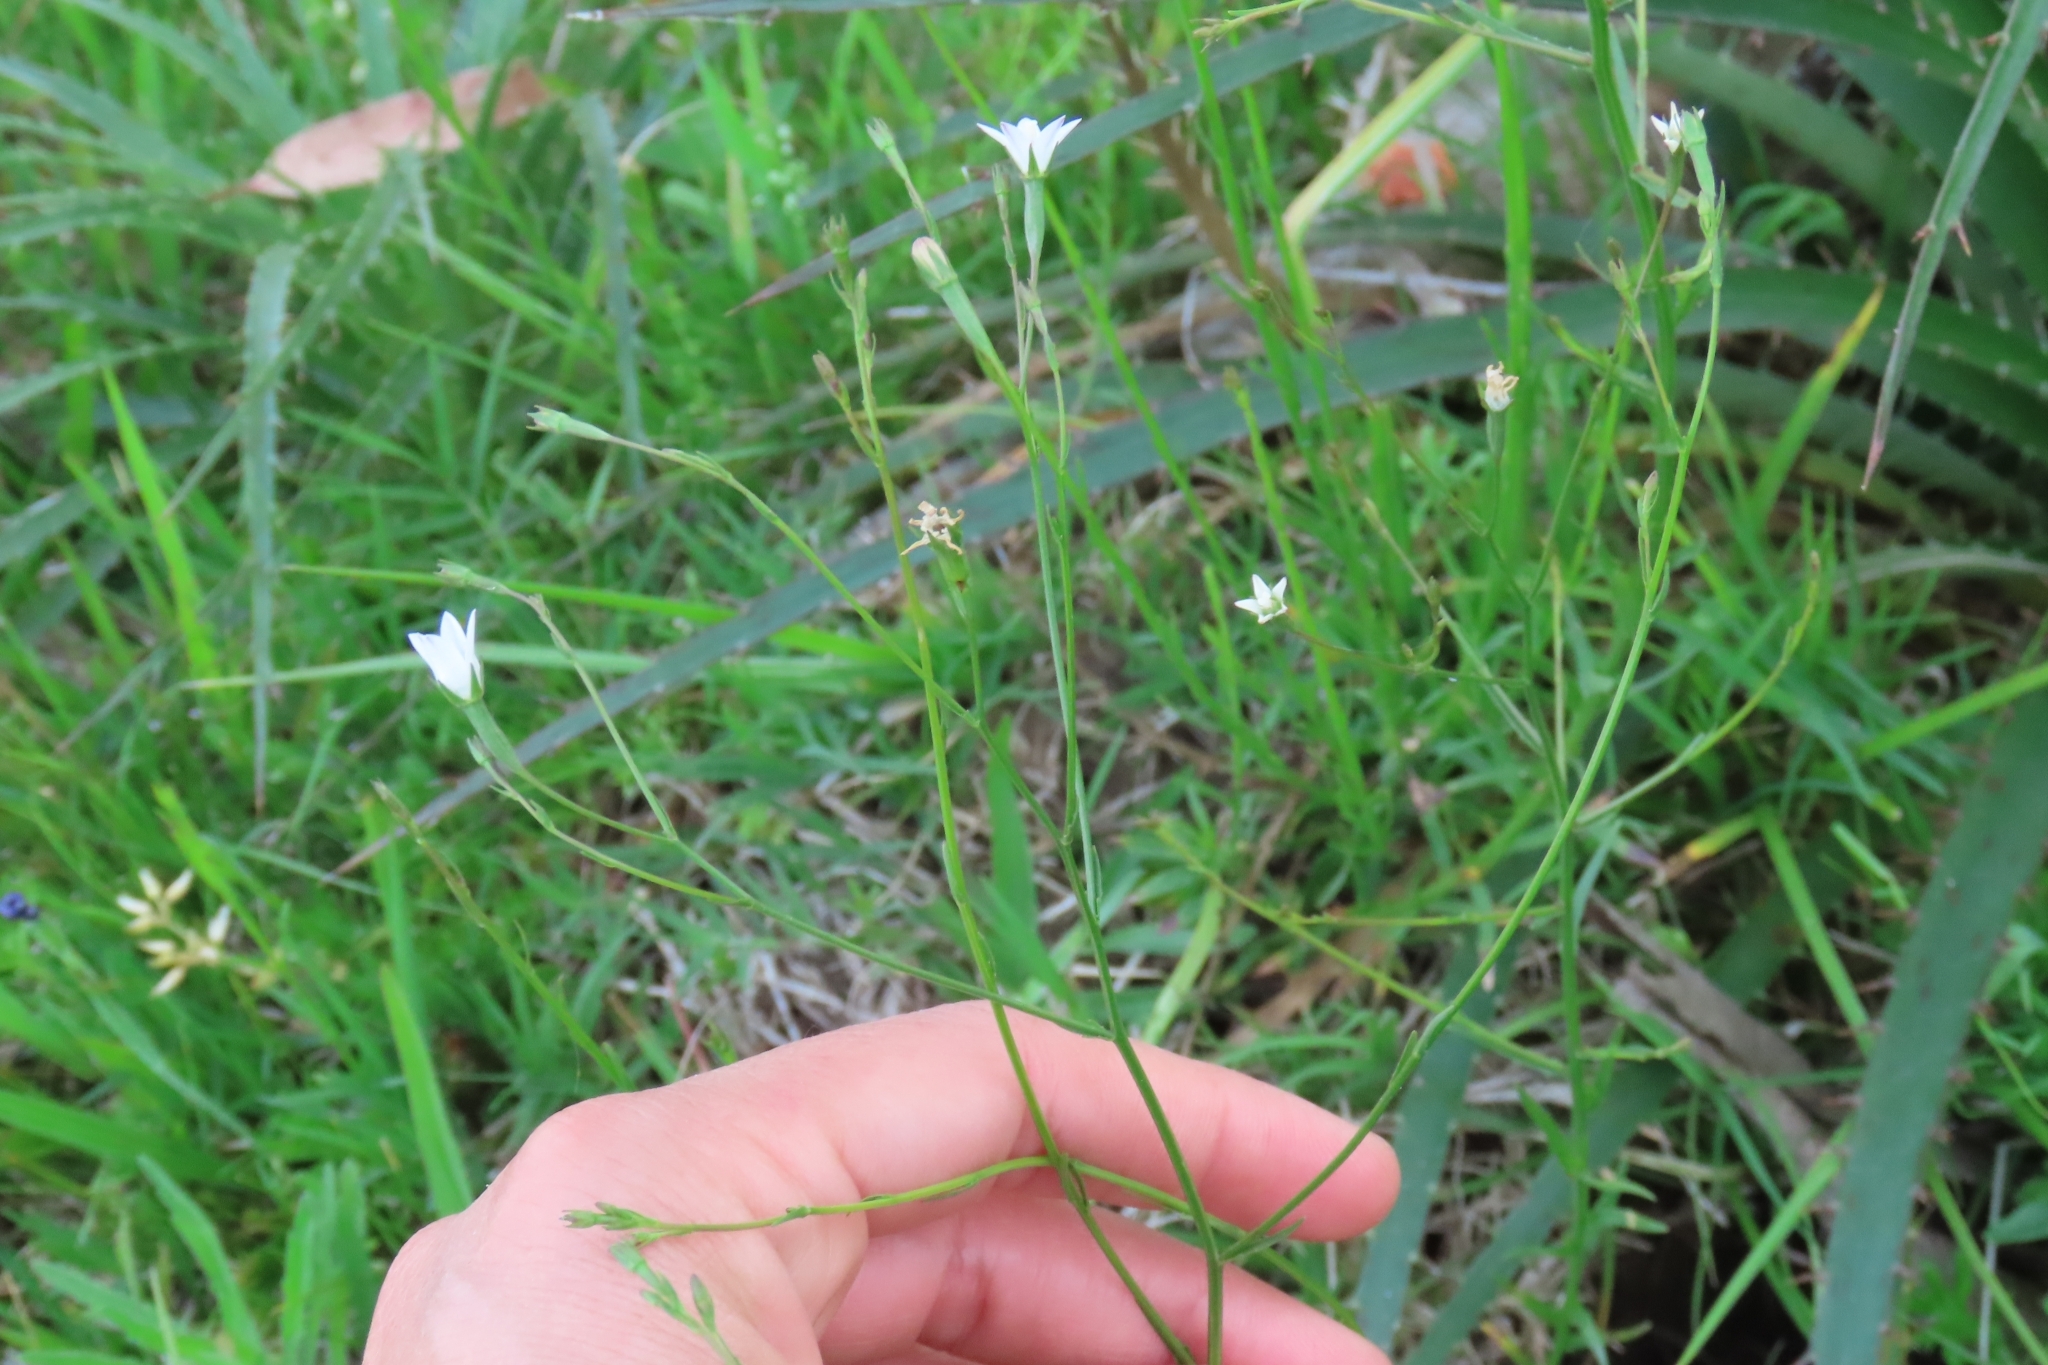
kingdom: Plantae
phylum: Tracheophyta
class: Magnoliopsida
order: Asterales
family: Campanulaceae
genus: Wahlenbergia
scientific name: Wahlenbergia linarioides
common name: Tuffybells
